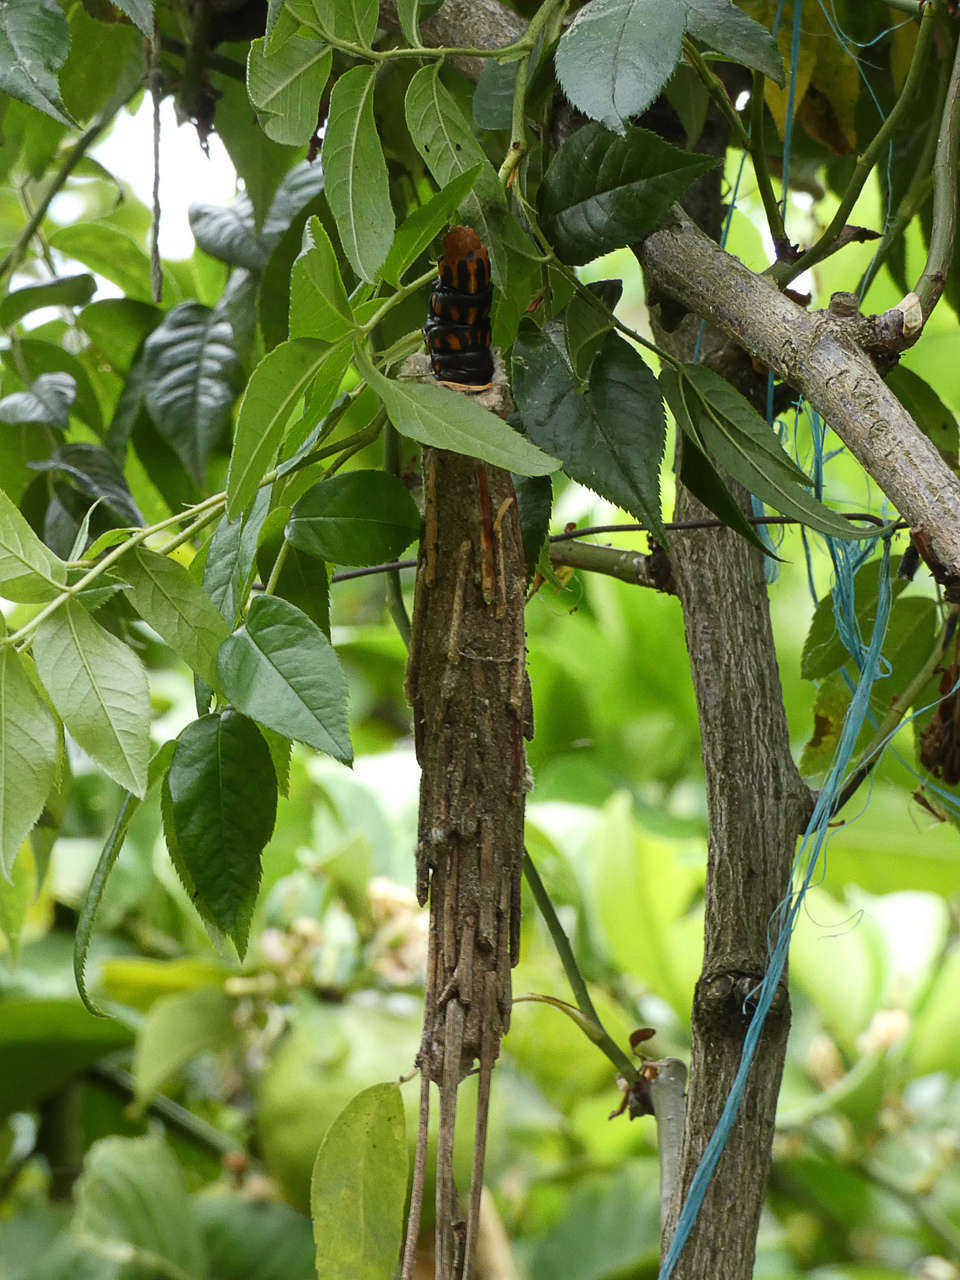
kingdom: Animalia
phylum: Arthropoda
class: Insecta
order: Lepidoptera
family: Psychidae
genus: Metura
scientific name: Metura elongatus
